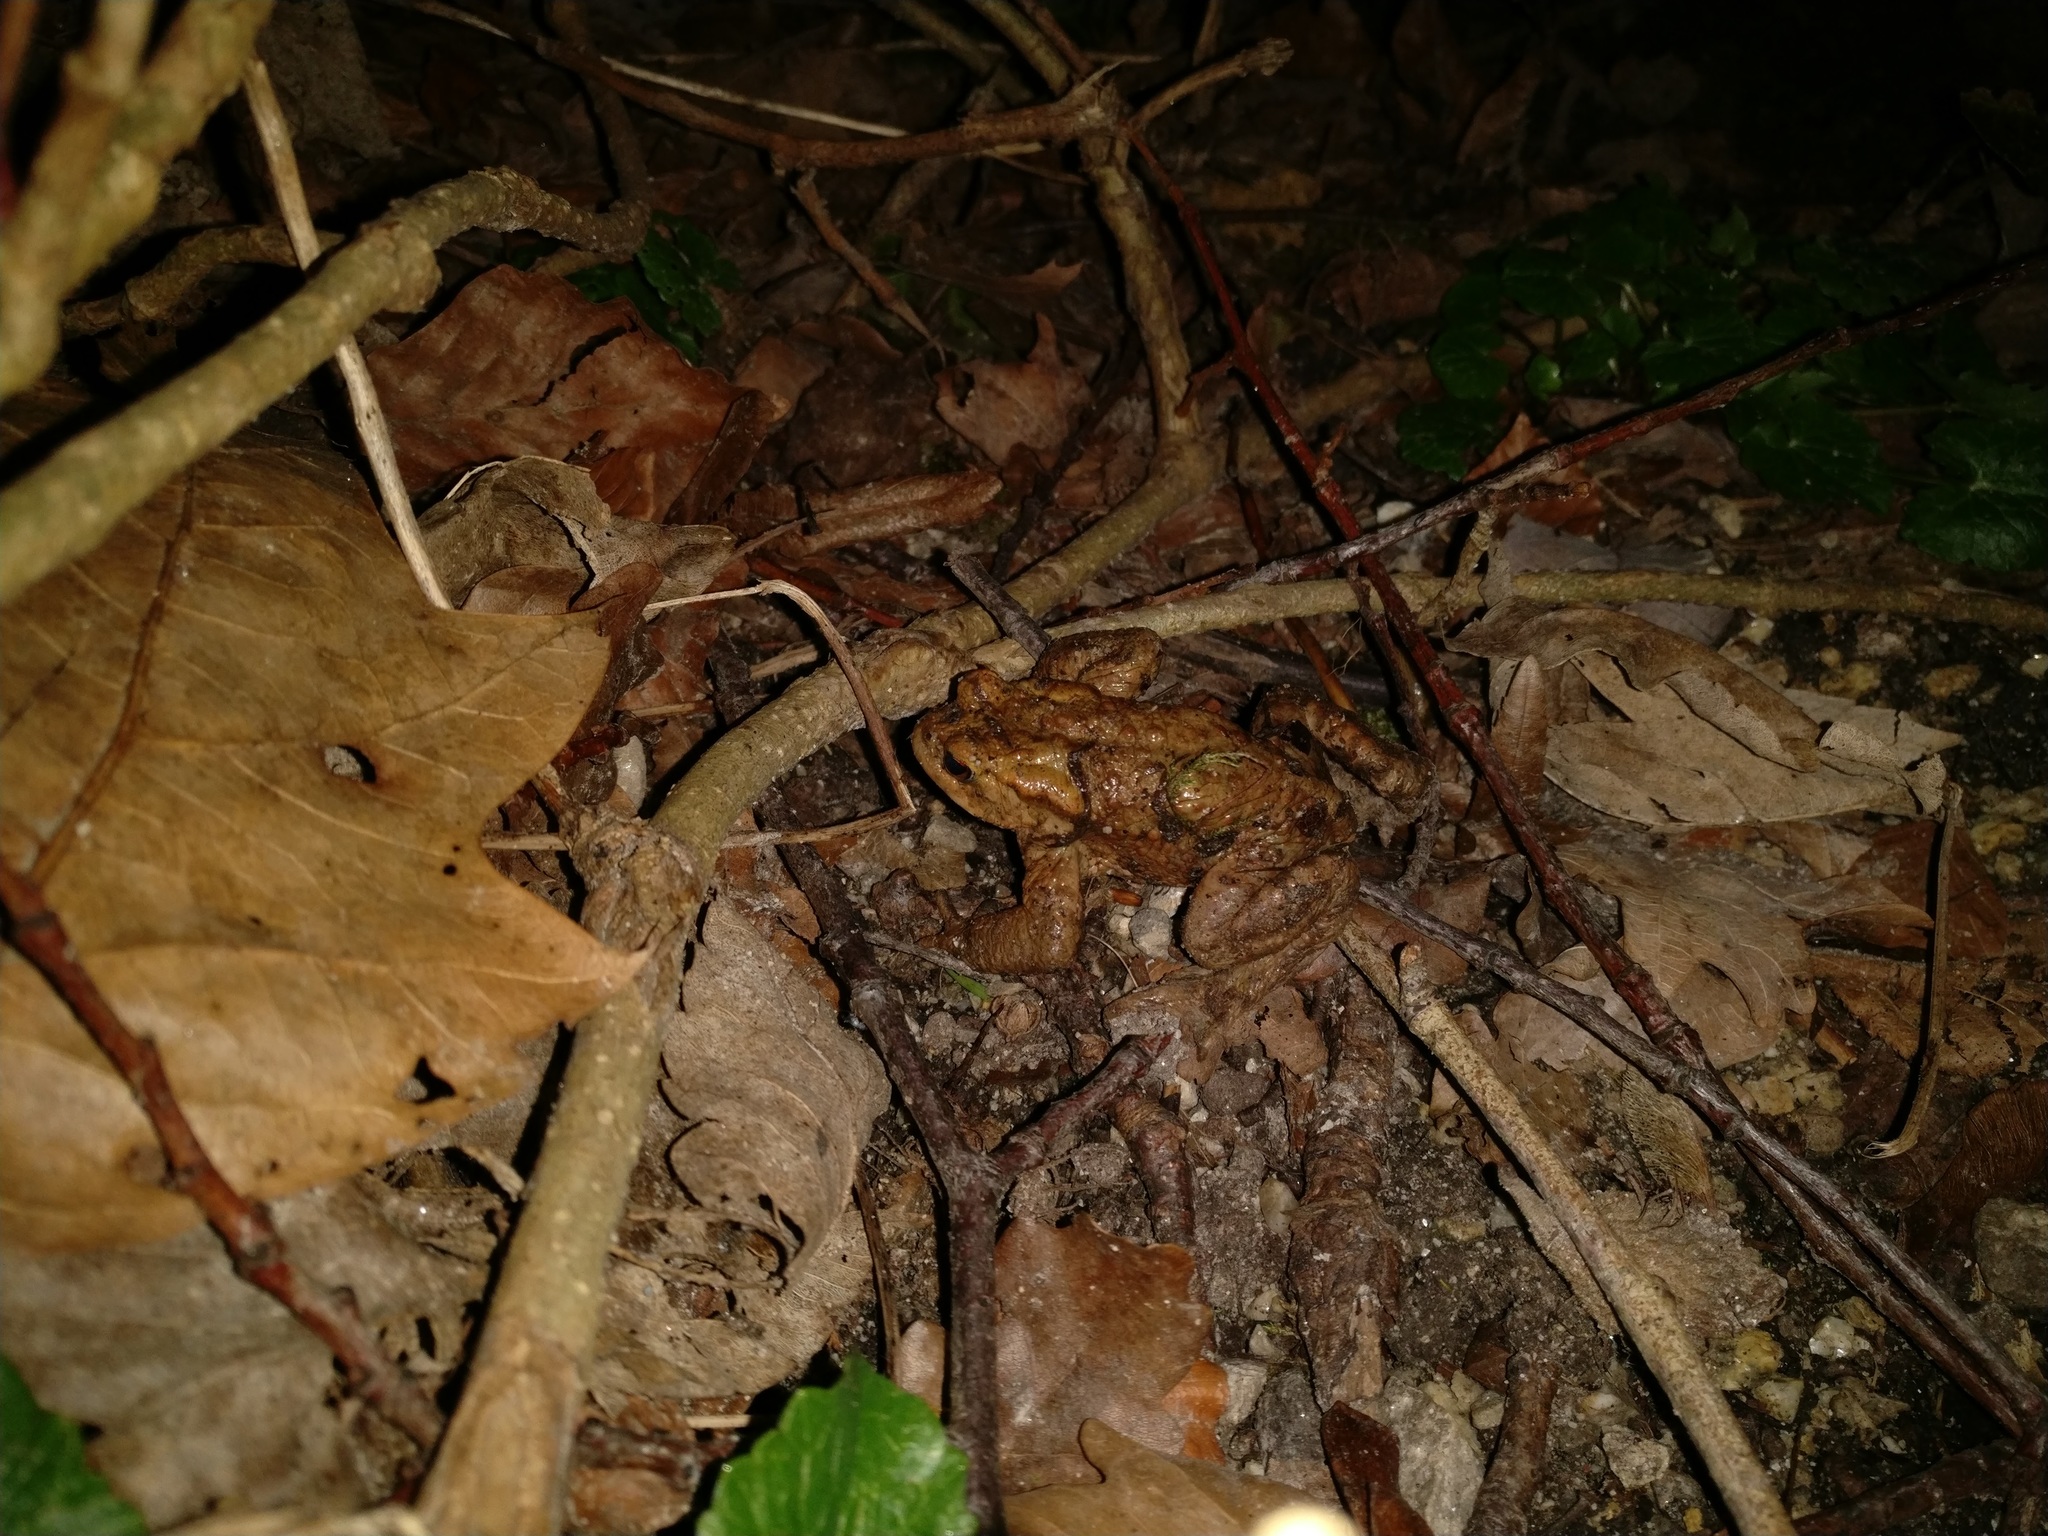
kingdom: Animalia
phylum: Chordata
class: Amphibia
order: Anura
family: Bufonidae
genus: Bufo
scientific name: Bufo bufo
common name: Common toad
